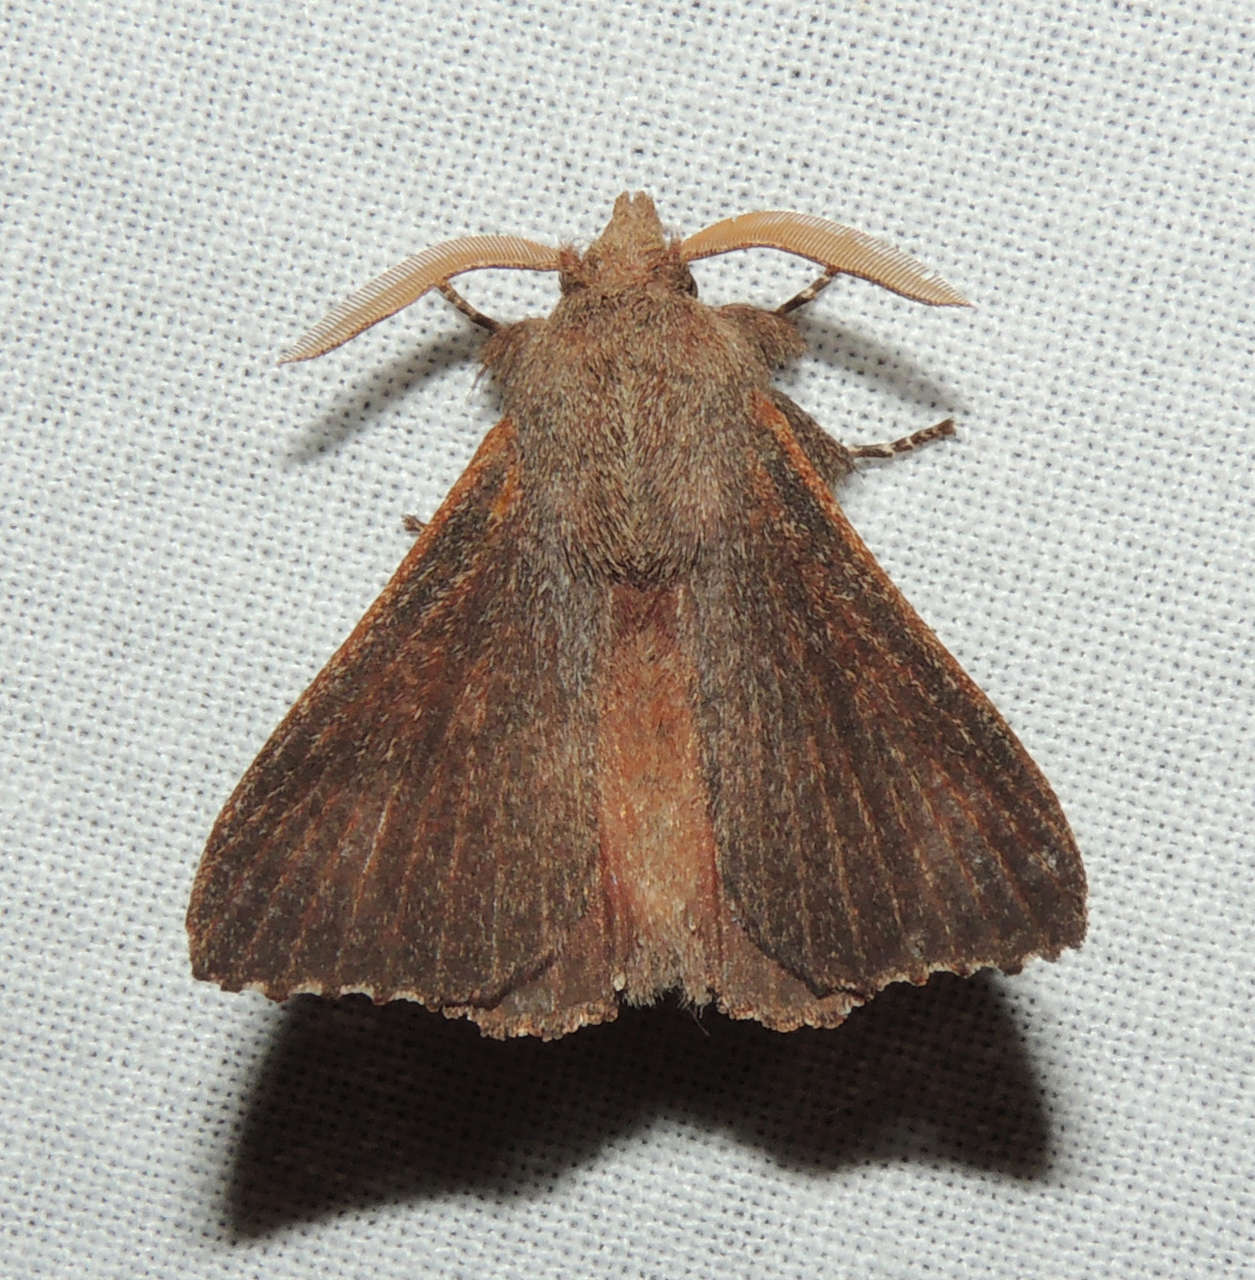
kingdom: Animalia
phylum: Arthropoda
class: Insecta
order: Lepidoptera
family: Lasiocampidae
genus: Pararguda
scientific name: Pararguda rufescens
